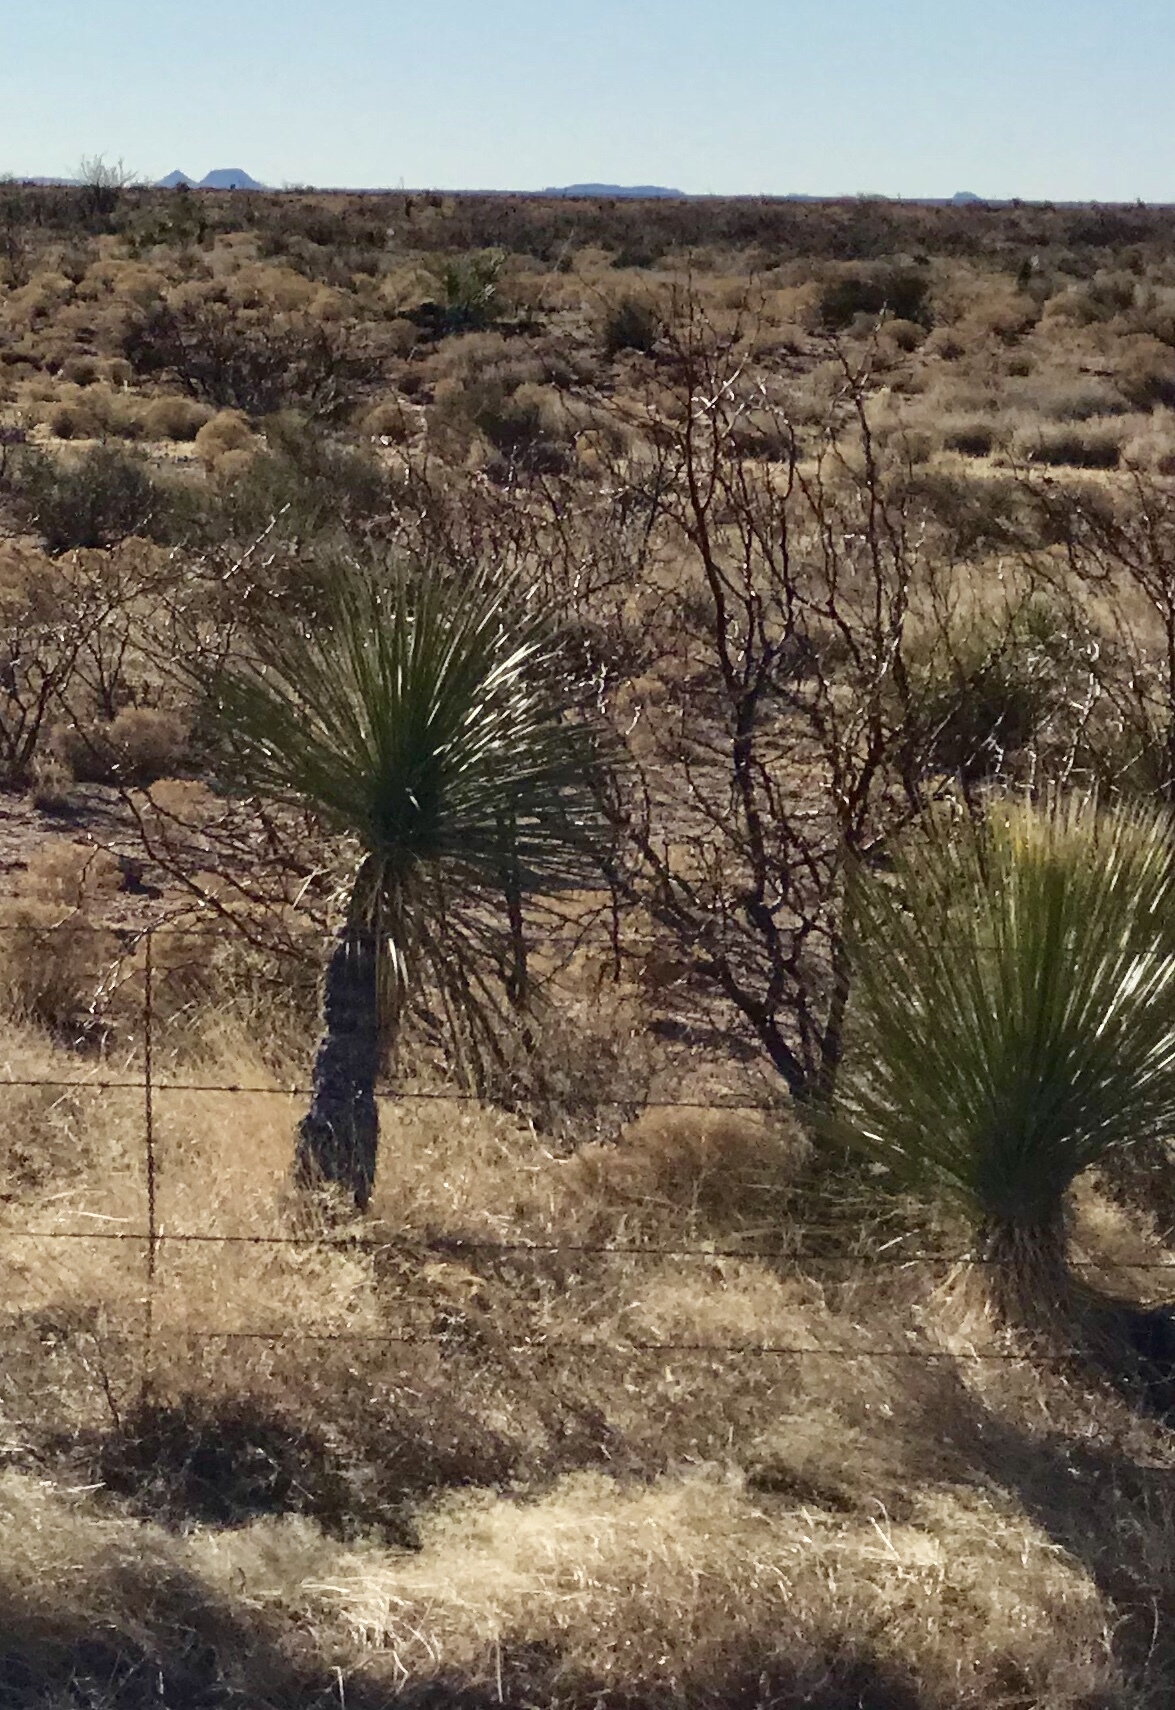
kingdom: Plantae
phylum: Tracheophyta
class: Liliopsida
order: Asparagales
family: Asparagaceae
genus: Yucca
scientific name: Yucca elata
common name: Palmella
